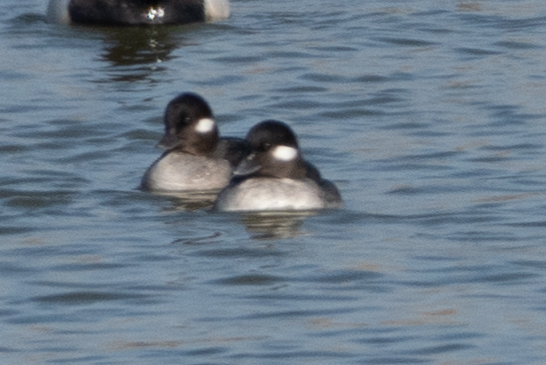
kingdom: Animalia
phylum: Chordata
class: Aves
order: Anseriformes
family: Anatidae
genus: Bucephala
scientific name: Bucephala albeola
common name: Bufflehead
